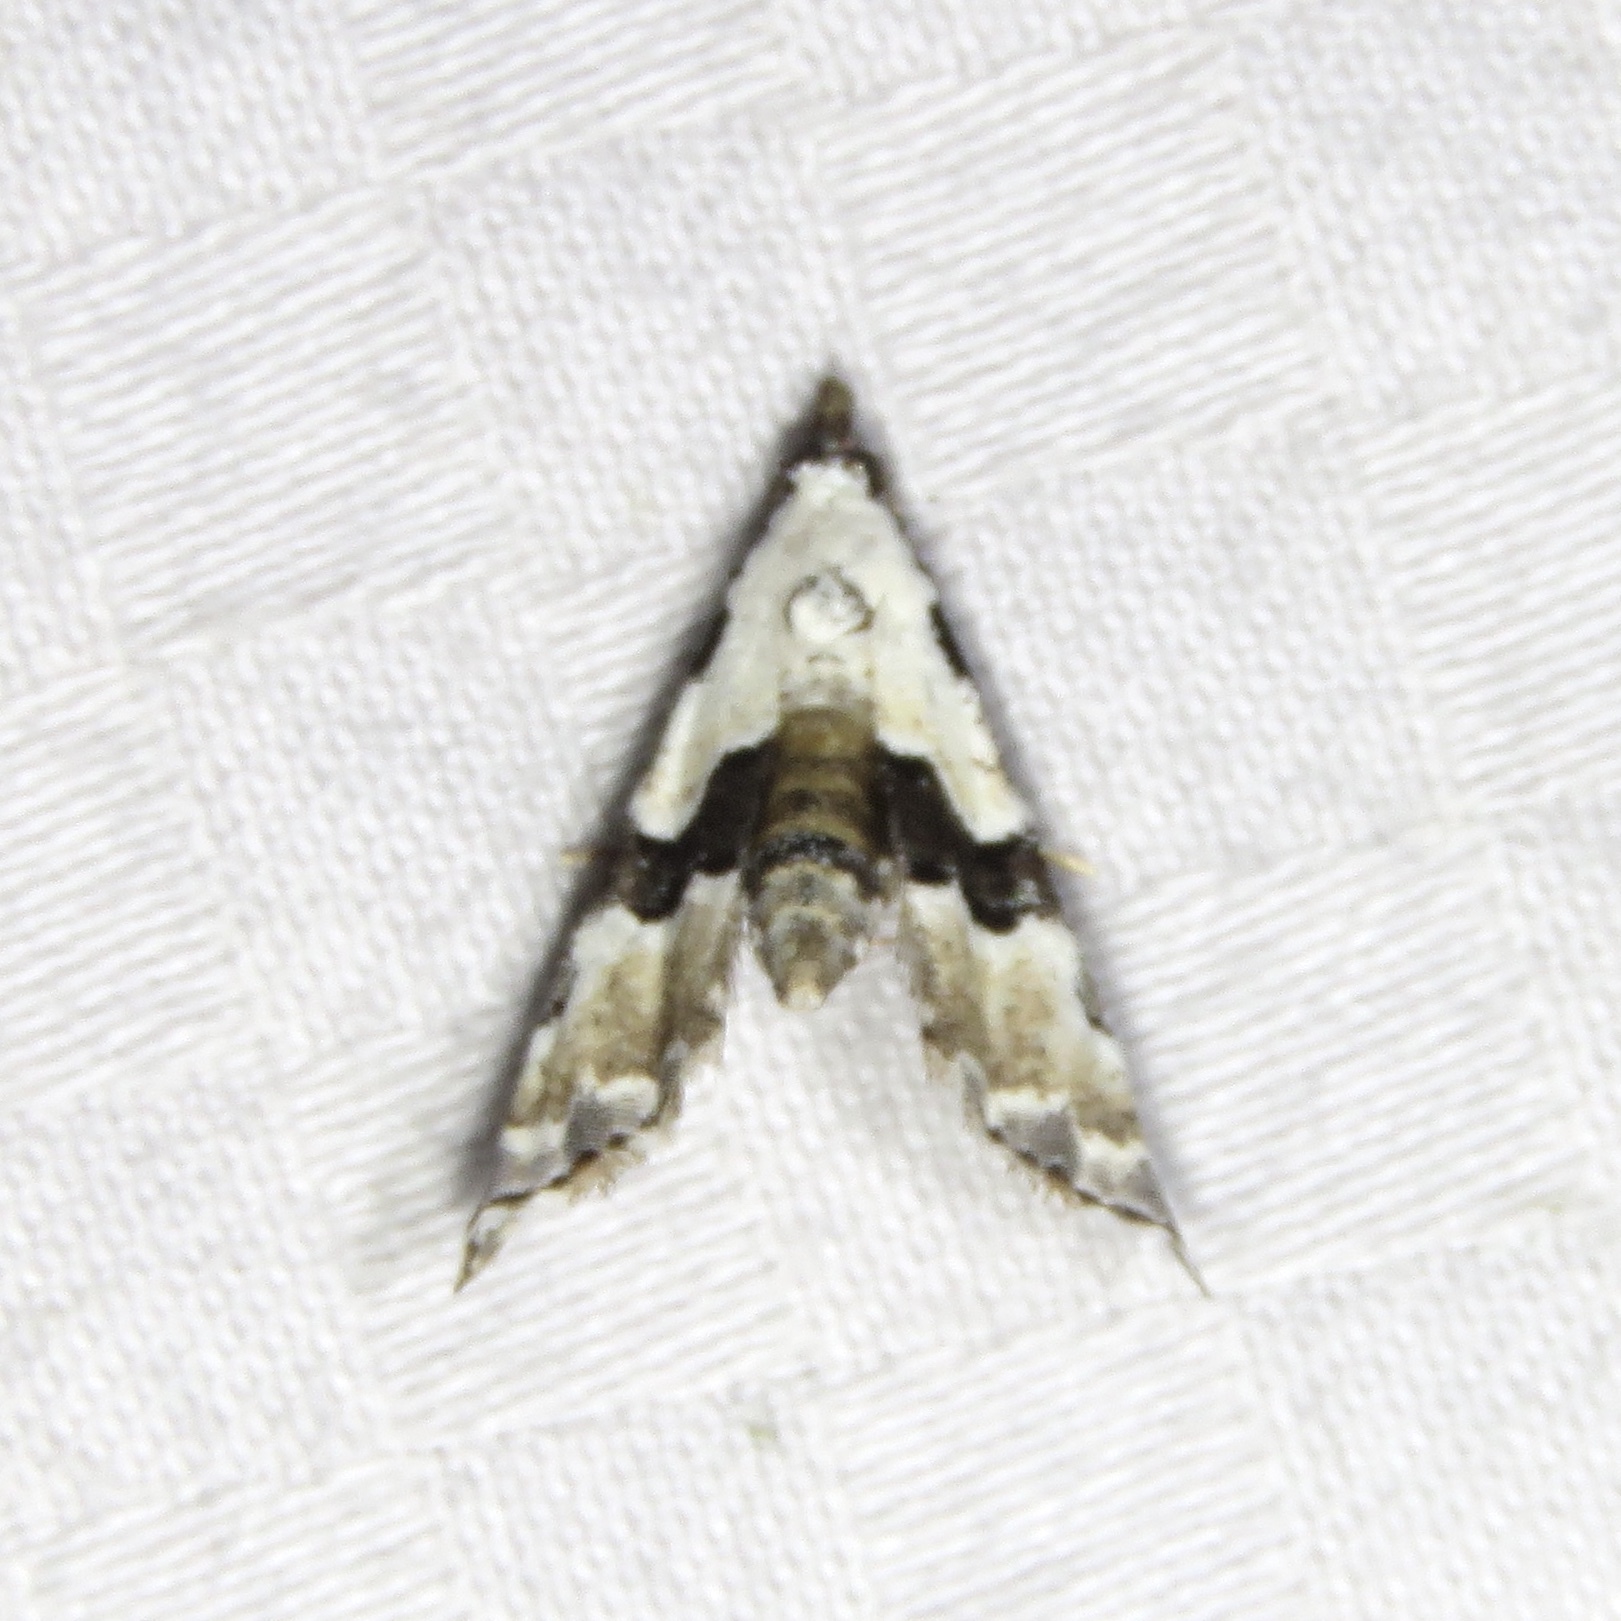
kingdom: Animalia
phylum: Arthropoda
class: Insecta
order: Lepidoptera
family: Noctuidae
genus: Nigetia
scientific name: Nigetia formosalis
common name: Thin-winged owlet
